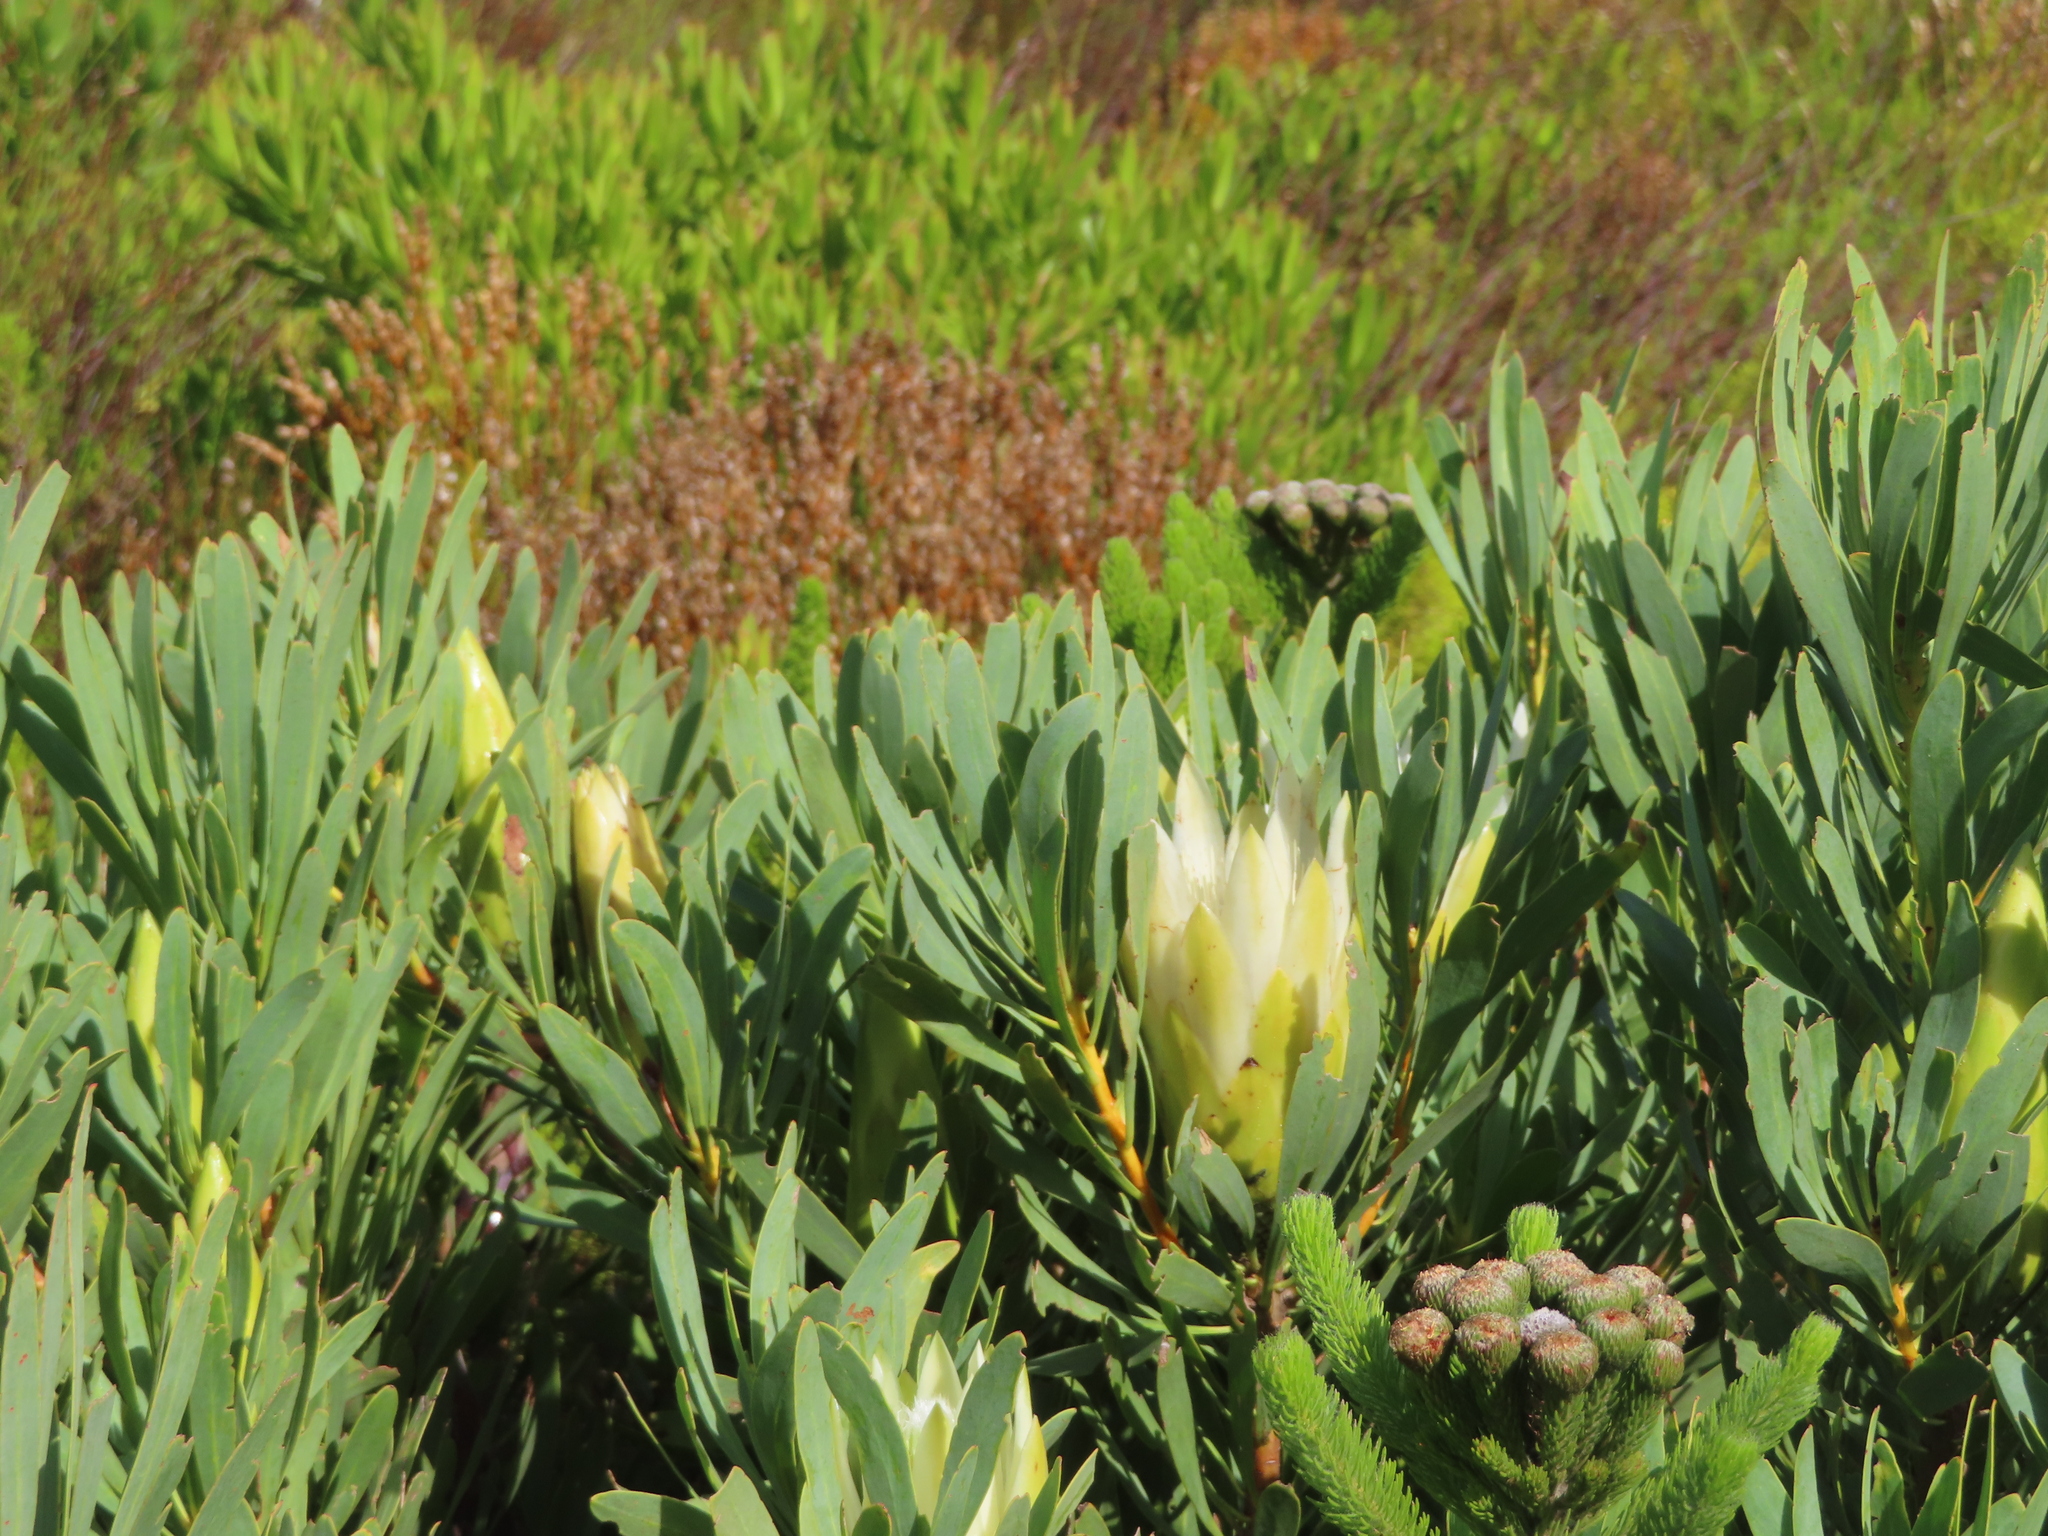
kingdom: Plantae
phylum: Tracheophyta
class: Magnoliopsida
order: Proteales
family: Proteaceae
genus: Protea
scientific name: Protea repens
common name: Sugarbush
